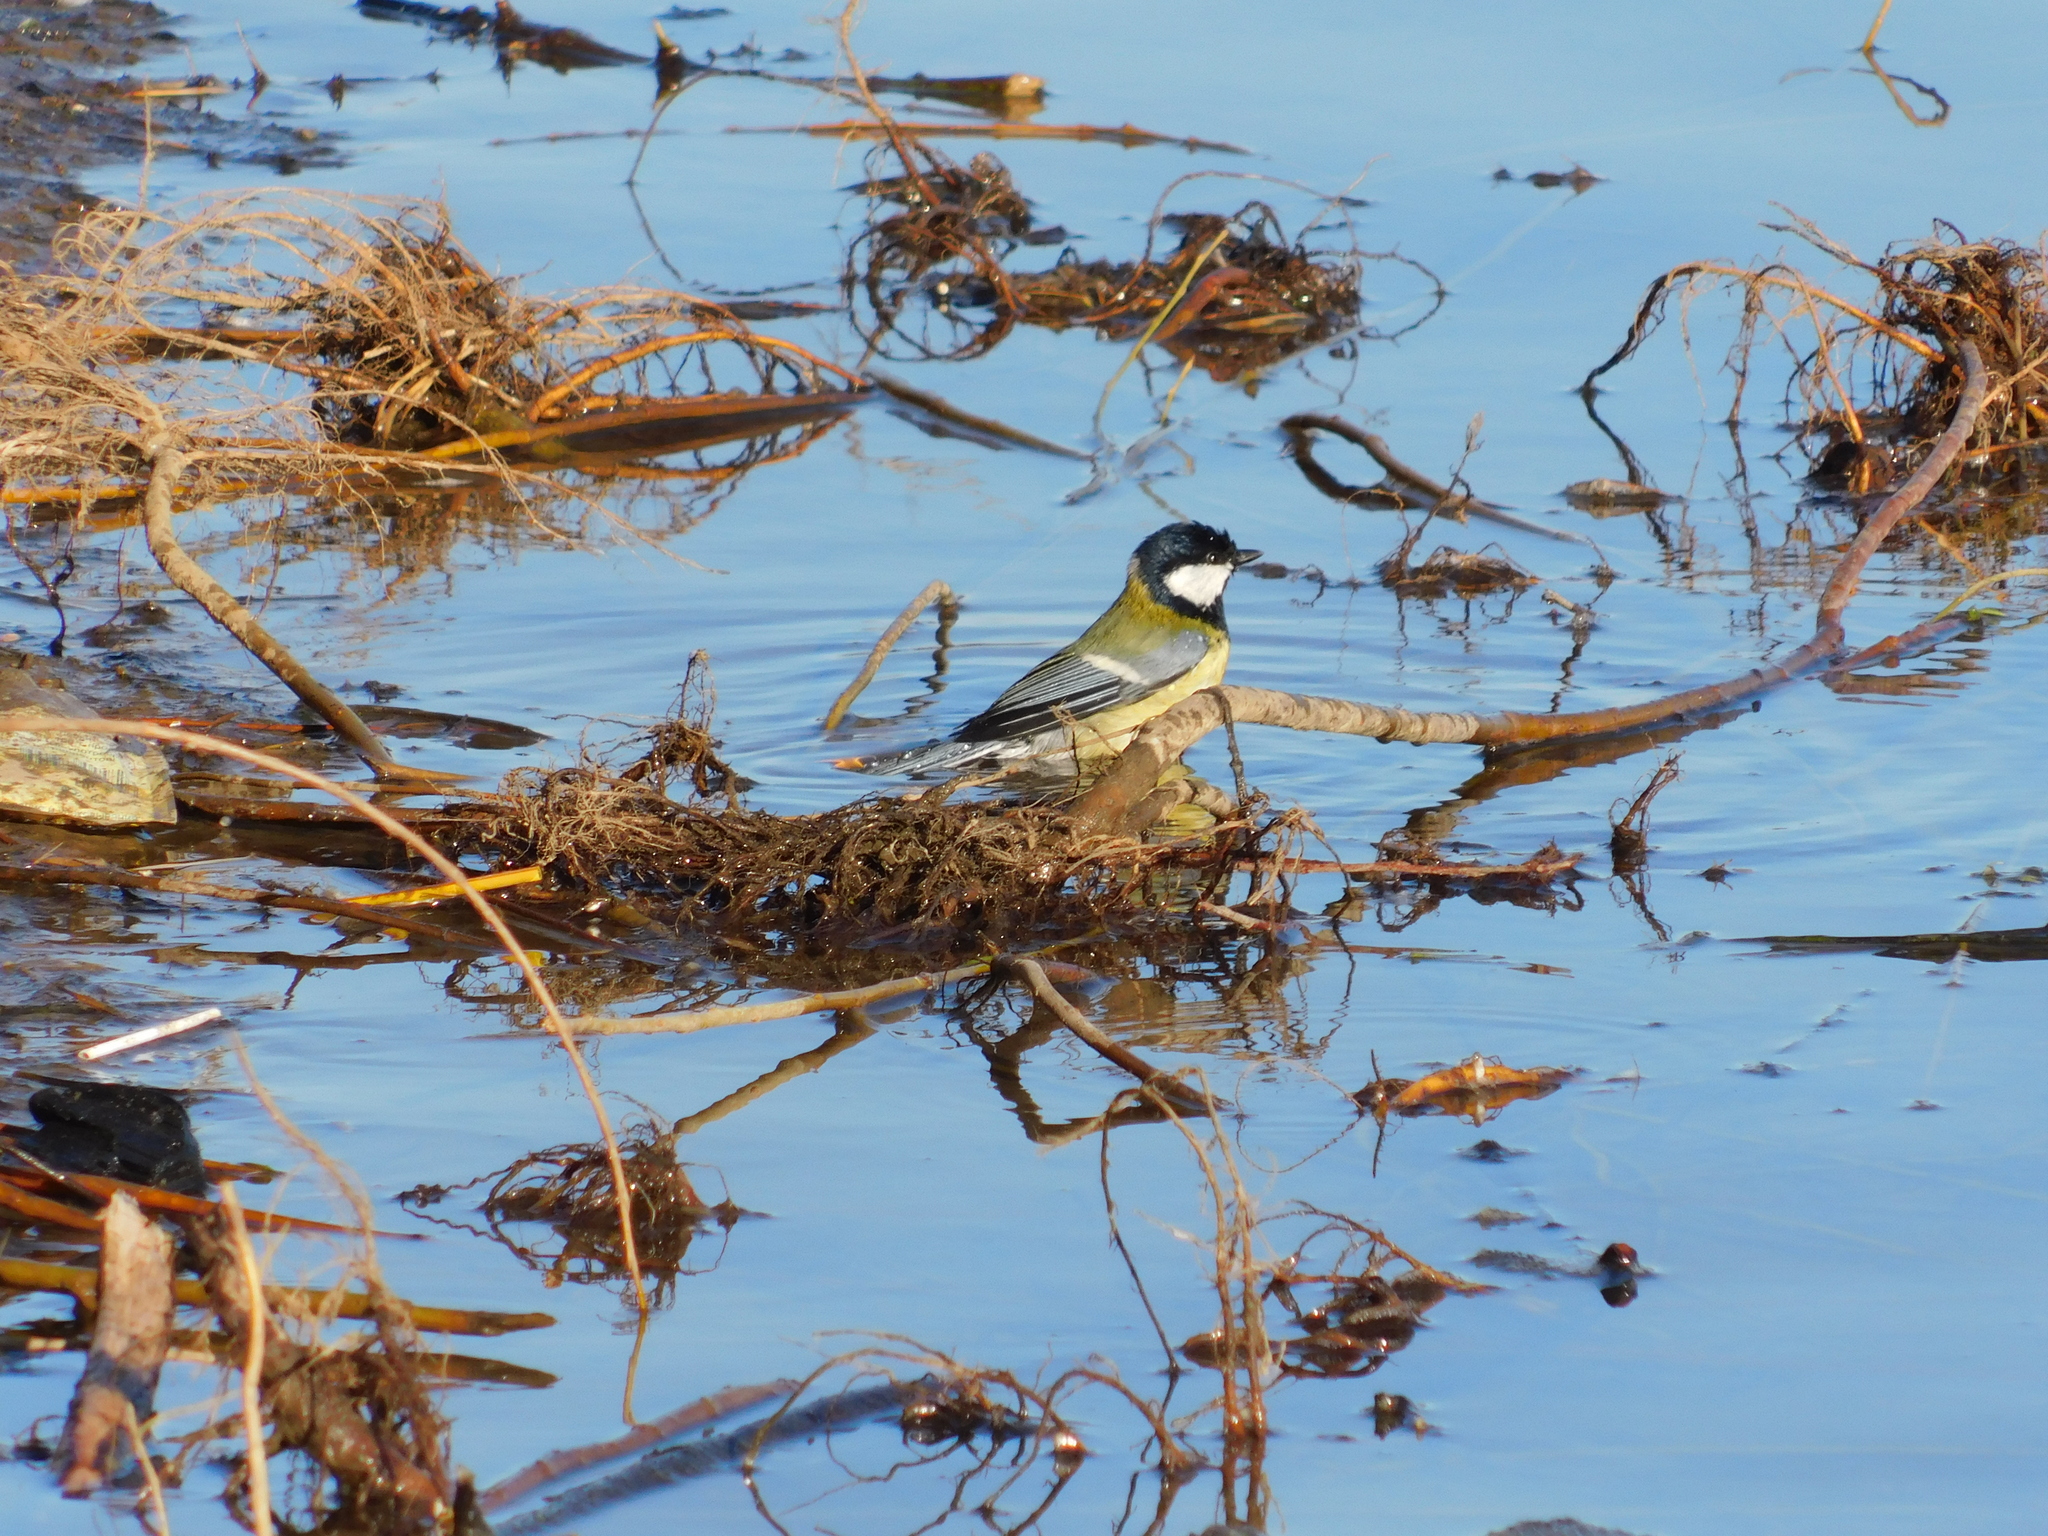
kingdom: Animalia
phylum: Chordata
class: Aves
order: Passeriformes
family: Paridae
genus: Parus
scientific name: Parus major
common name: Great tit
